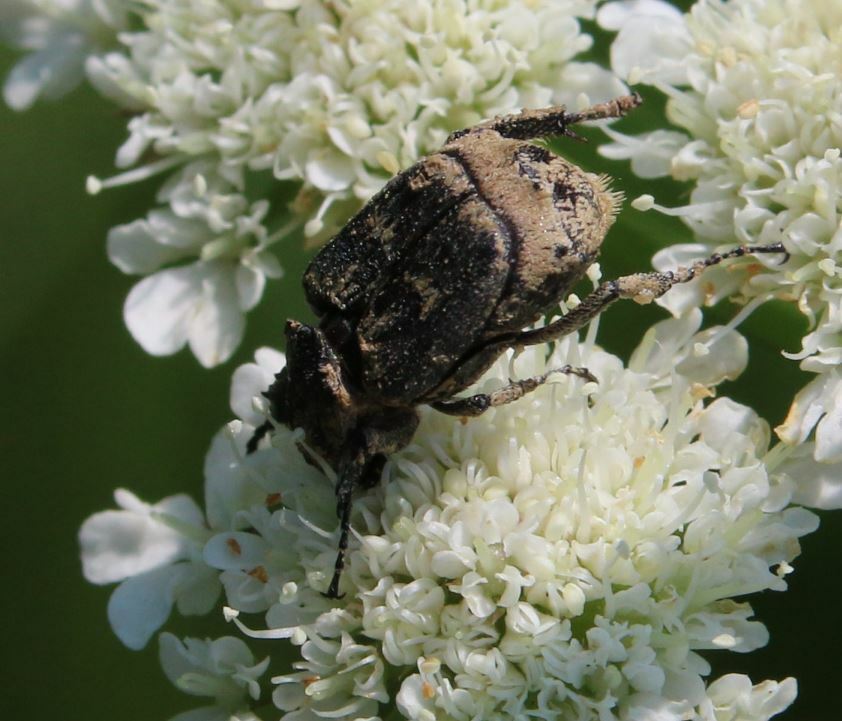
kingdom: Animalia
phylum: Arthropoda
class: Insecta
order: Coleoptera
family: Scarabaeidae
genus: Valgus
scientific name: Valgus hemipterus
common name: Bug flower chafer
